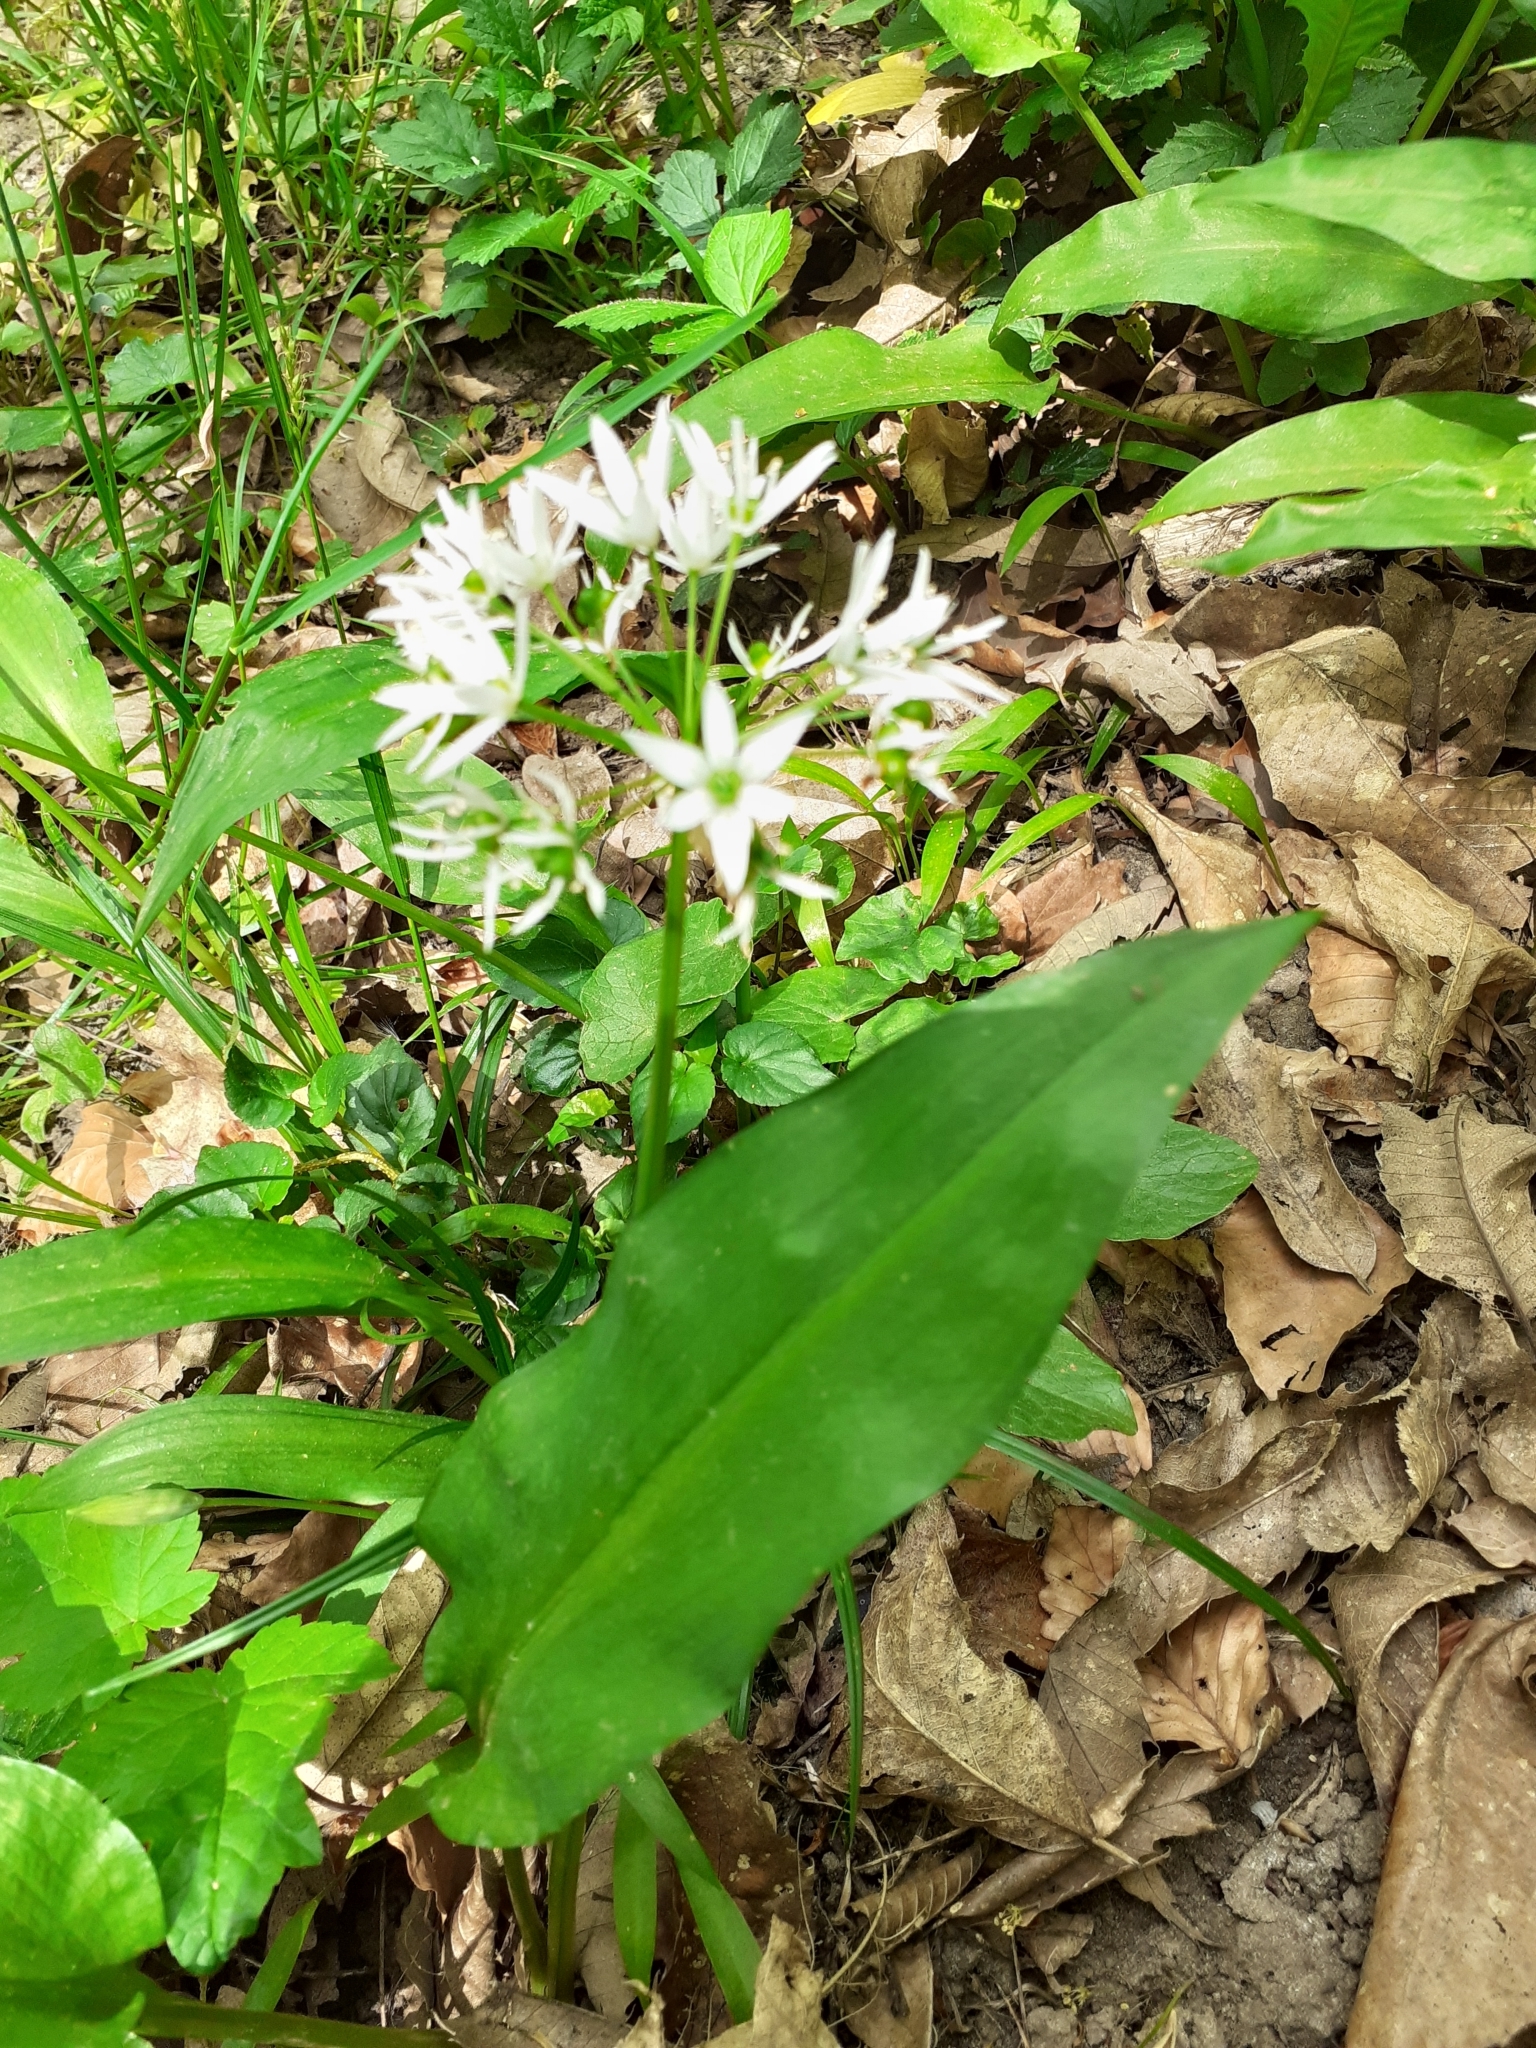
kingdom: Plantae
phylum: Tracheophyta
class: Liliopsida
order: Asparagales
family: Amaryllidaceae
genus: Allium
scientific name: Allium ursinum
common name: Ramsons
